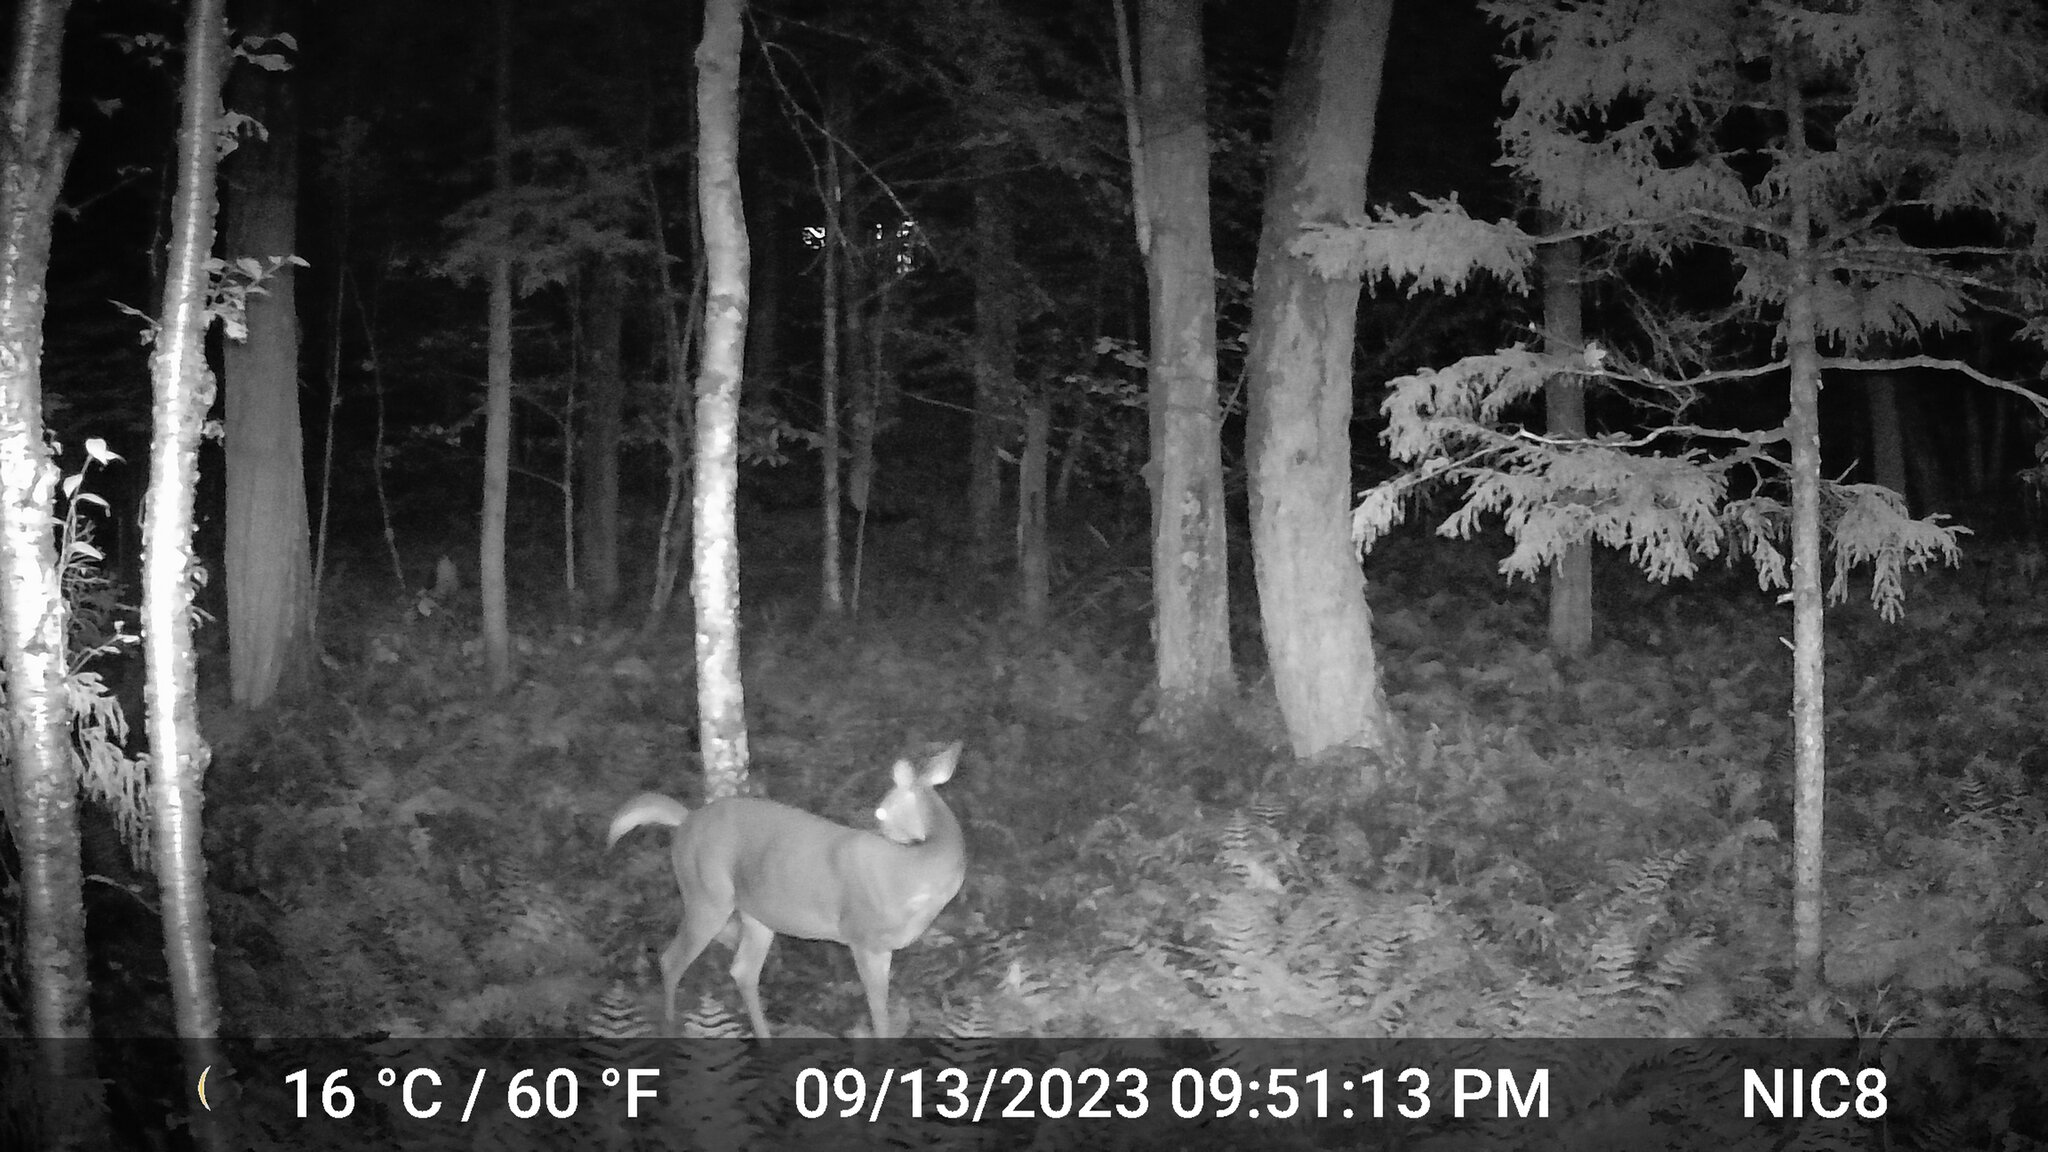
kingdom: Animalia
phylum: Chordata
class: Mammalia
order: Artiodactyla
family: Cervidae
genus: Odocoileus
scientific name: Odocoileus virginianus
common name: White-tailed deer
